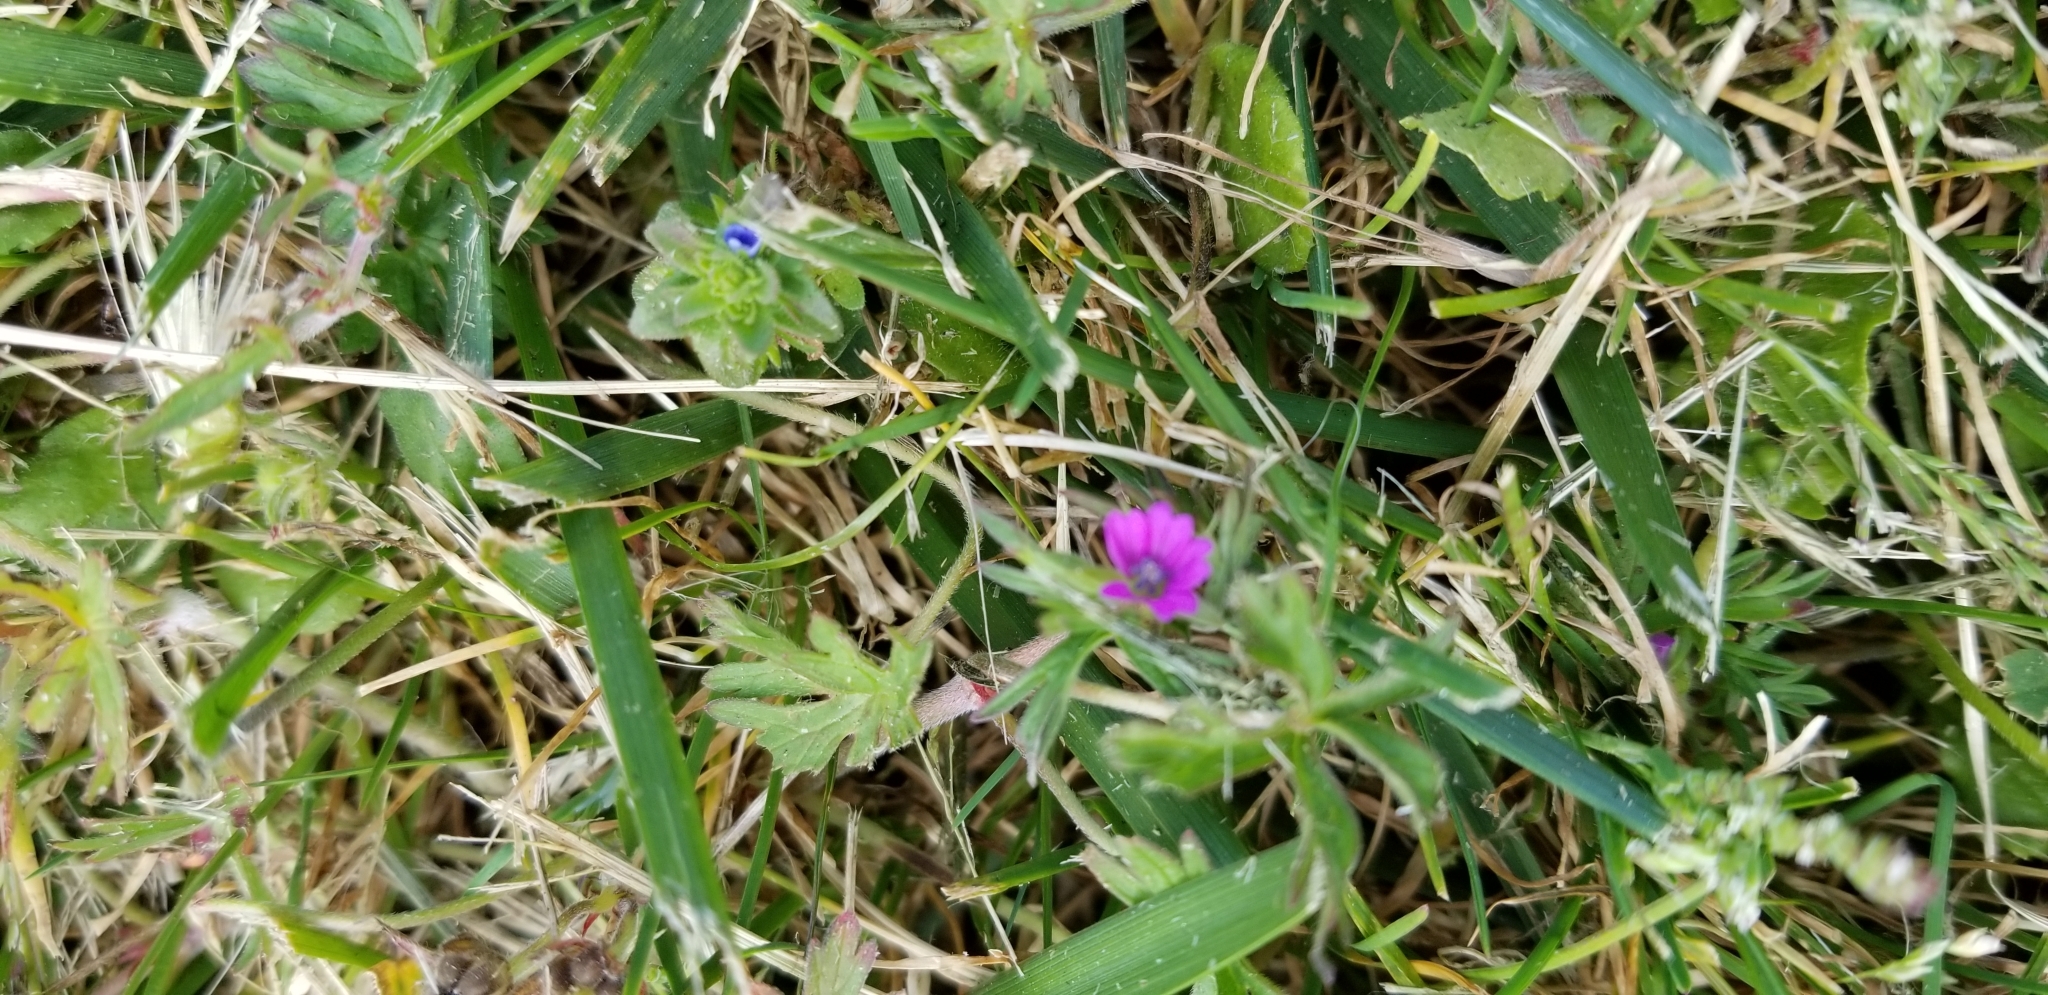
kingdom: Plantae
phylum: Tracheophyta
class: Magnoliopsida
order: Geraniales
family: Geraniaceae
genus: Geranium
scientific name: Geranium dissectum
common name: Cut-leaved crane's-bill
